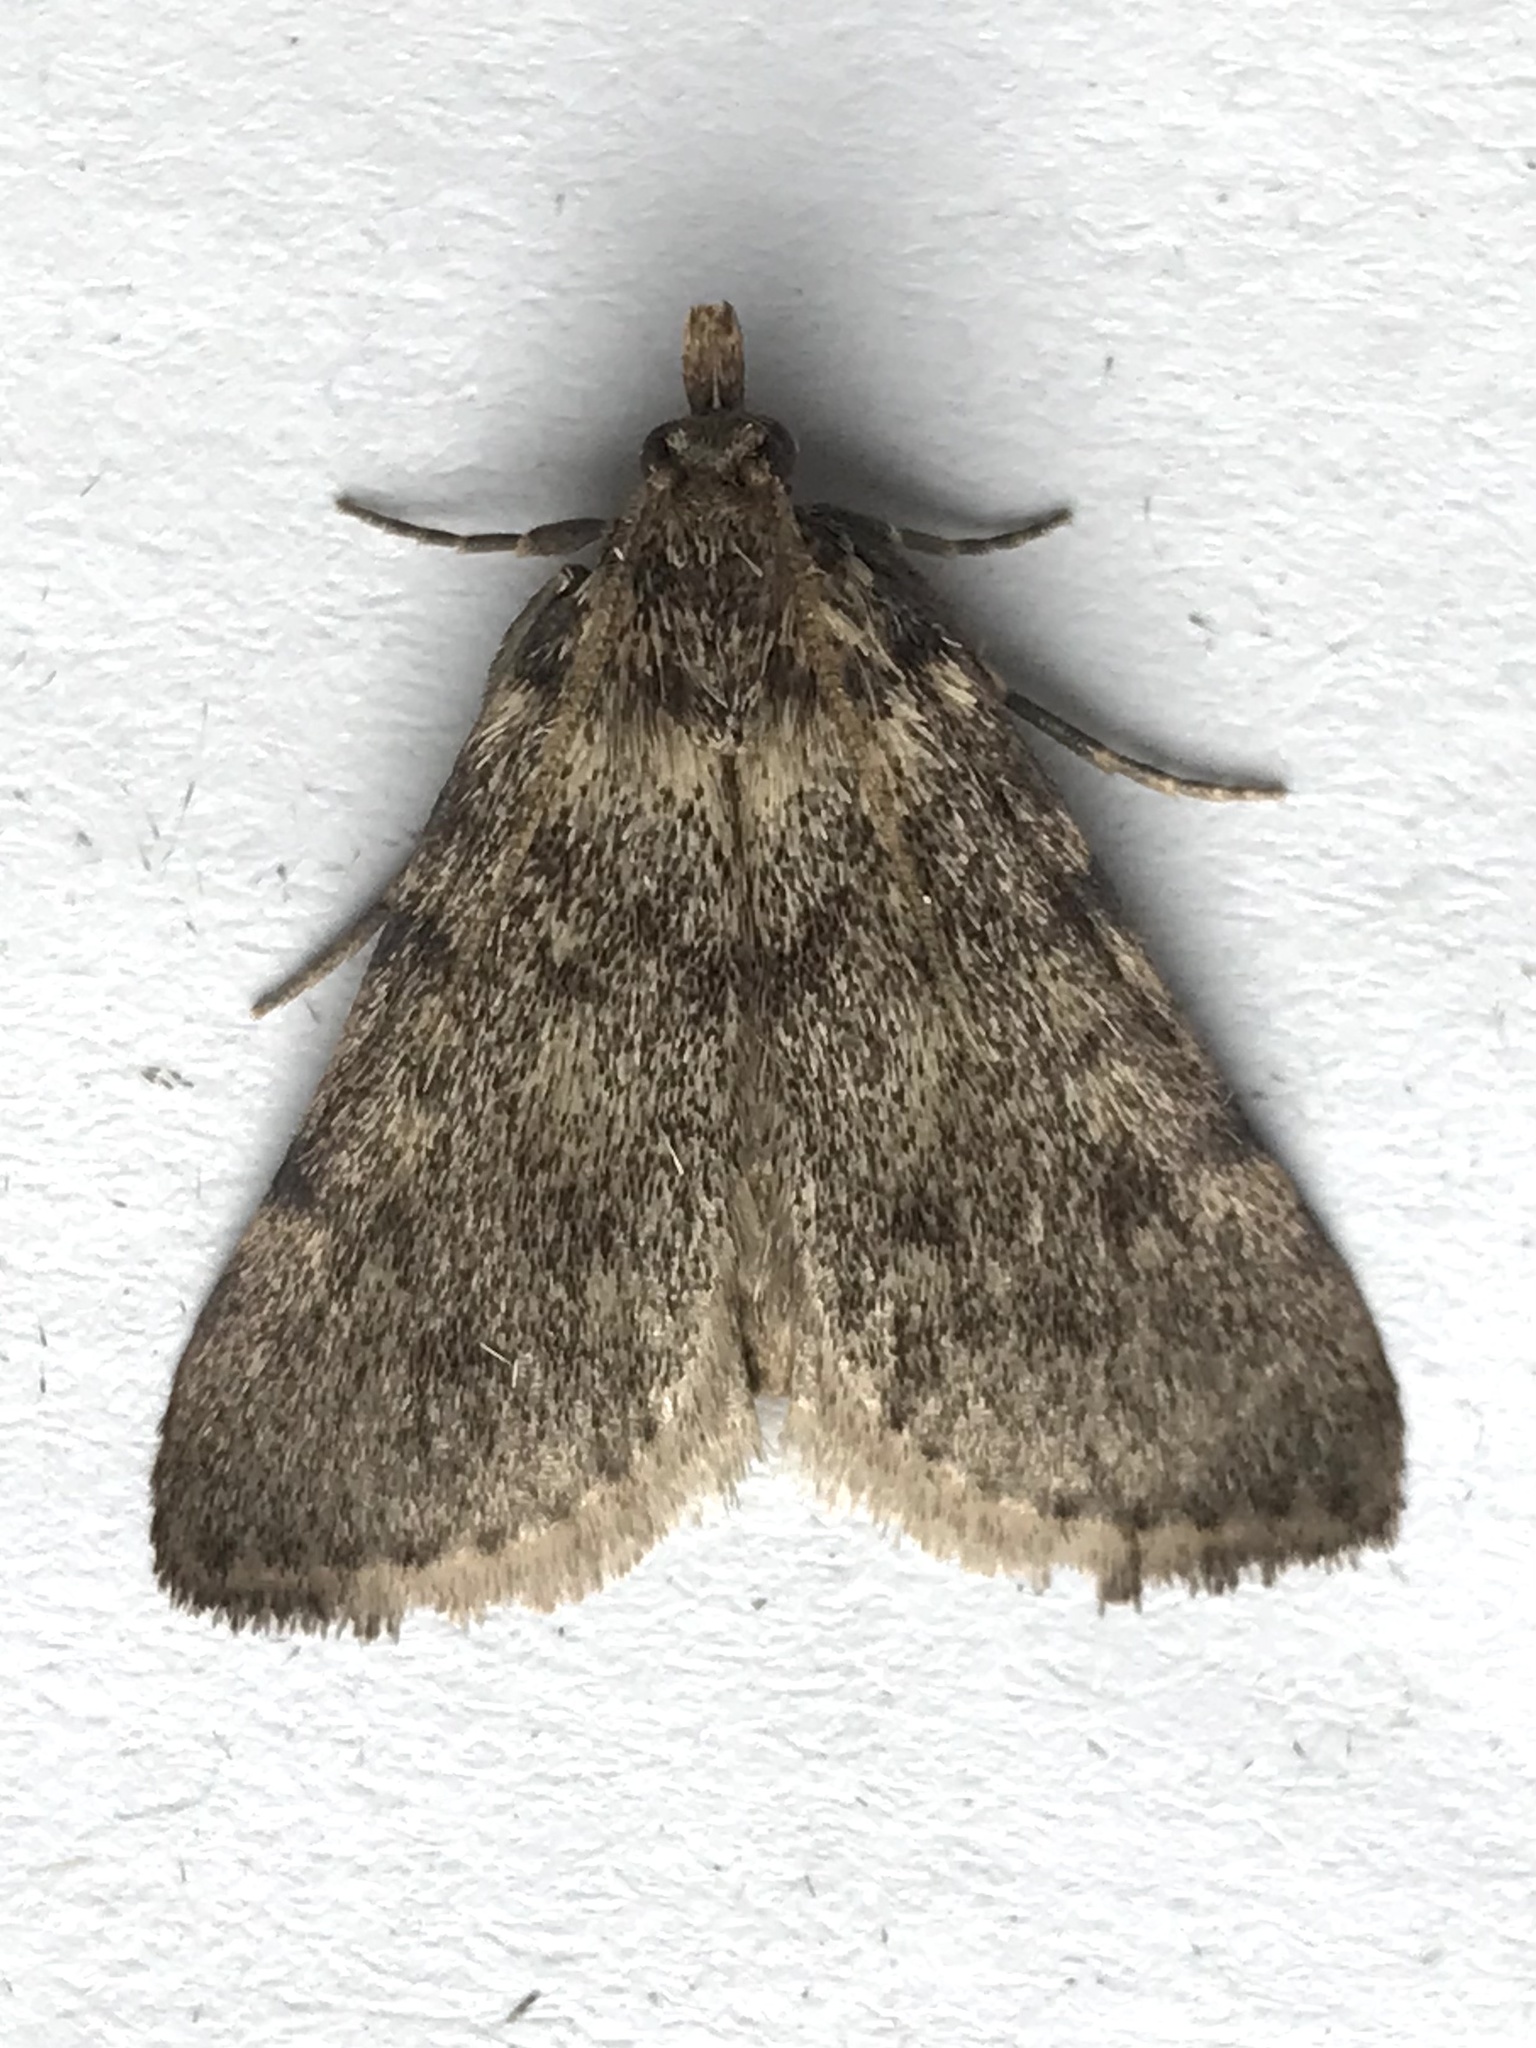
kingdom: Animalia
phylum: Arthropoda
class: Insecta
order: Lepidoptera
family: Pyralidae
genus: Aglossa
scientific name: Aglossa pinguinalis
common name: Large tabby
